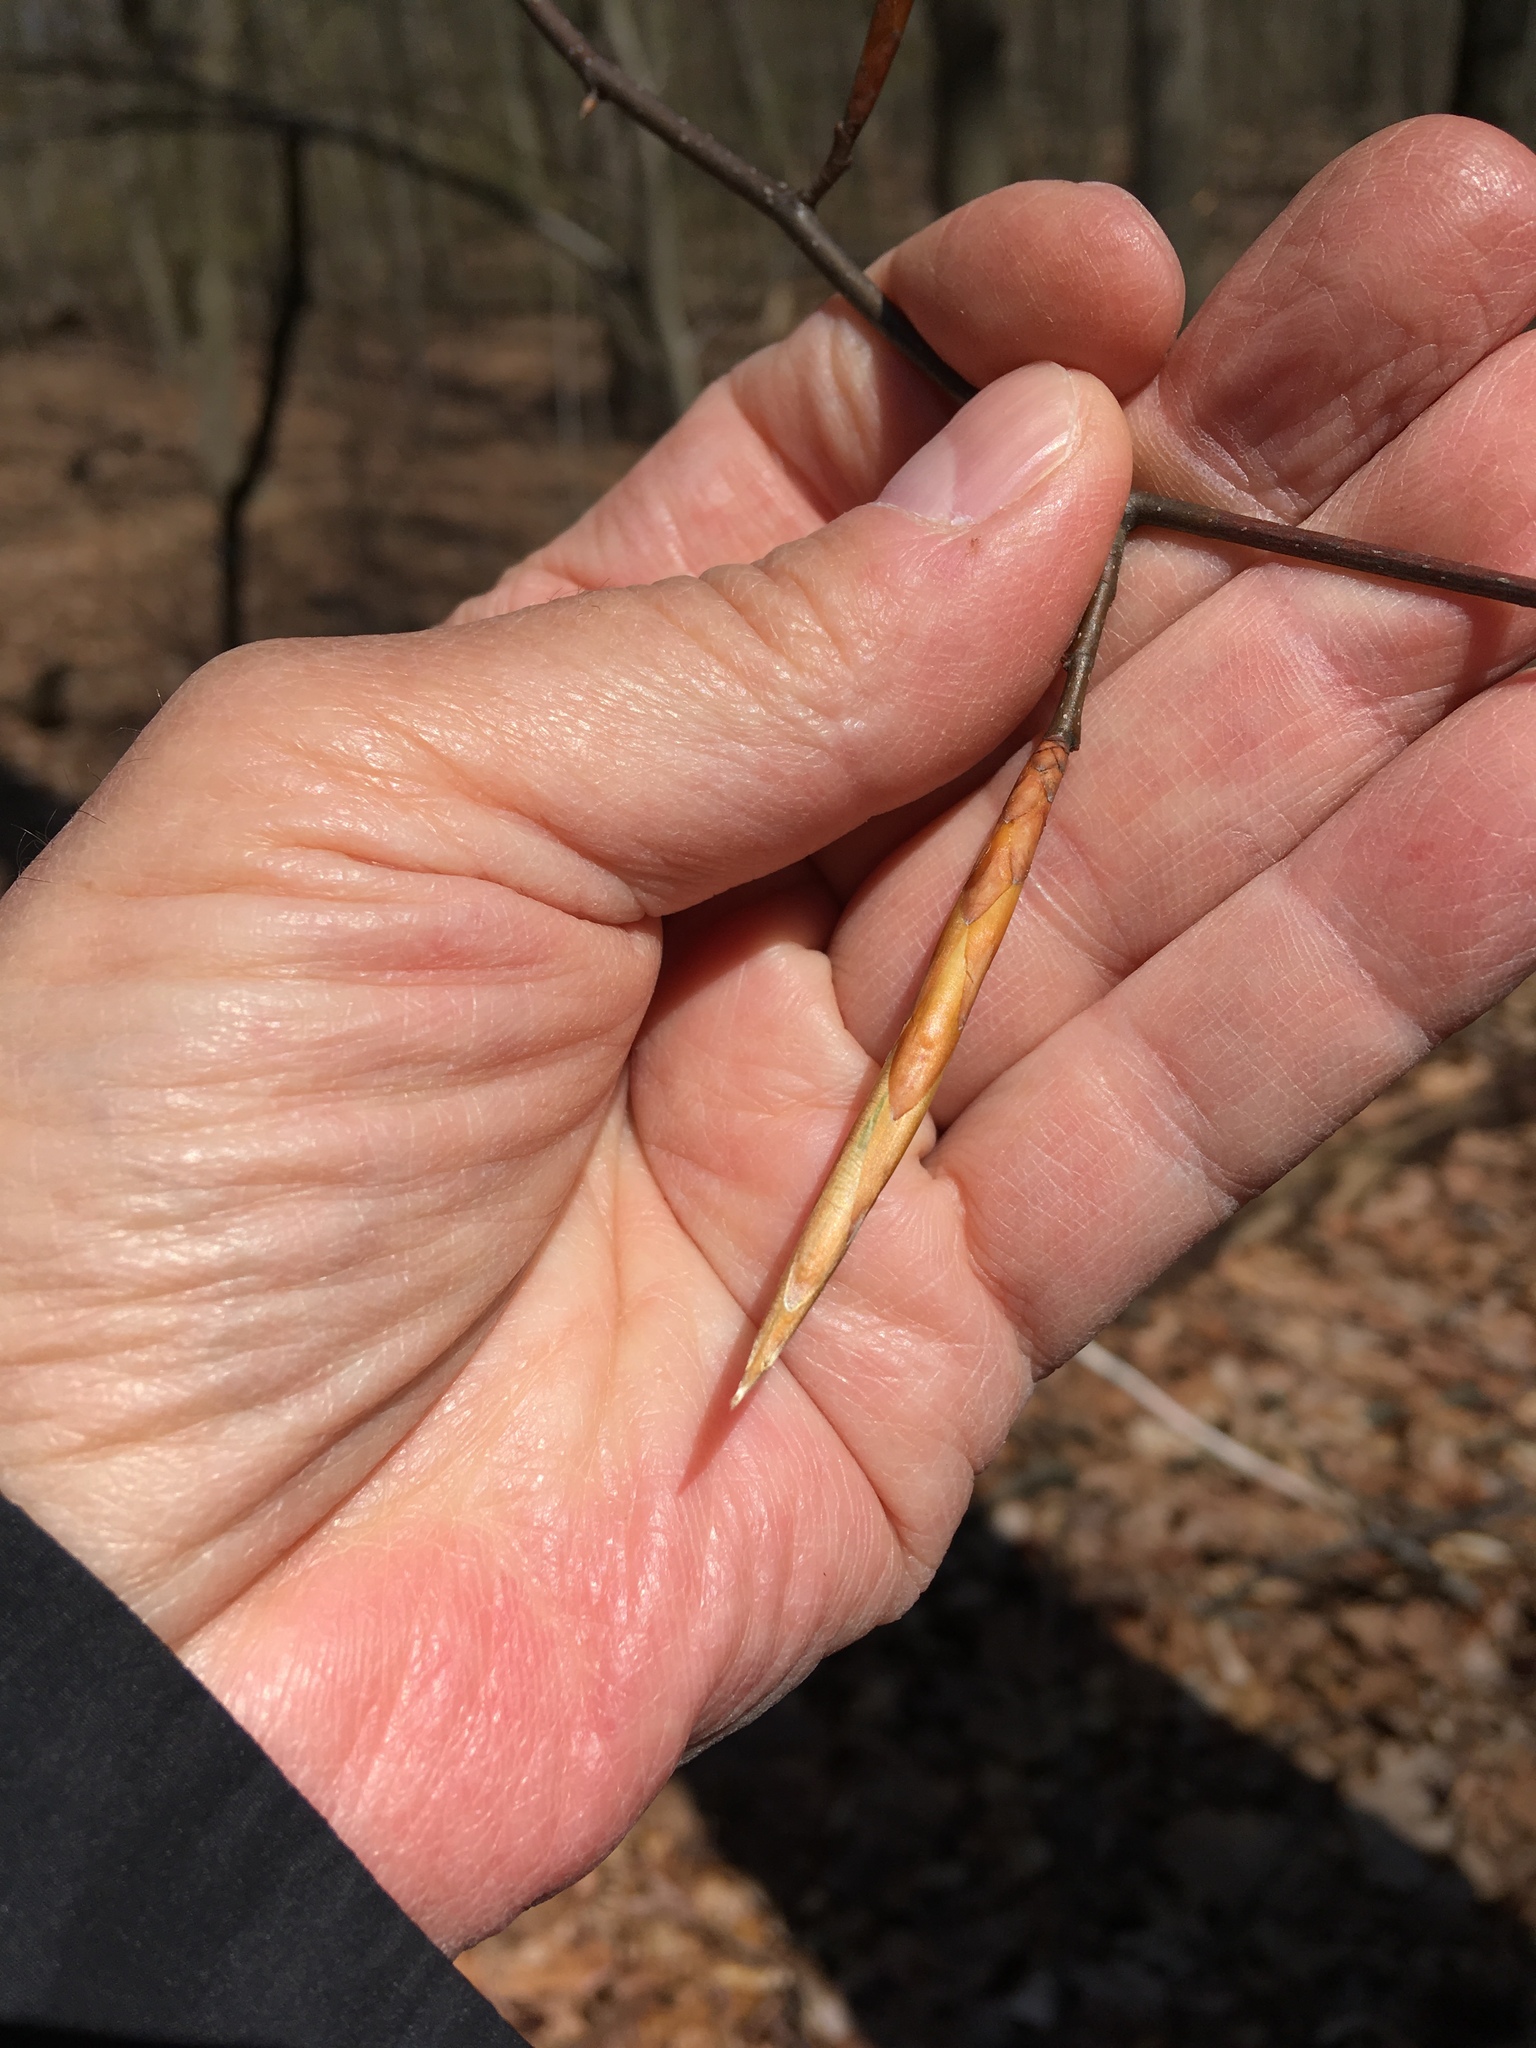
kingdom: Plantae
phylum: Tracheophyta
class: Magnoliopsida
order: Fagales
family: Fagaceae
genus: Fagus
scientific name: Fagus grandifolia
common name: American beech
